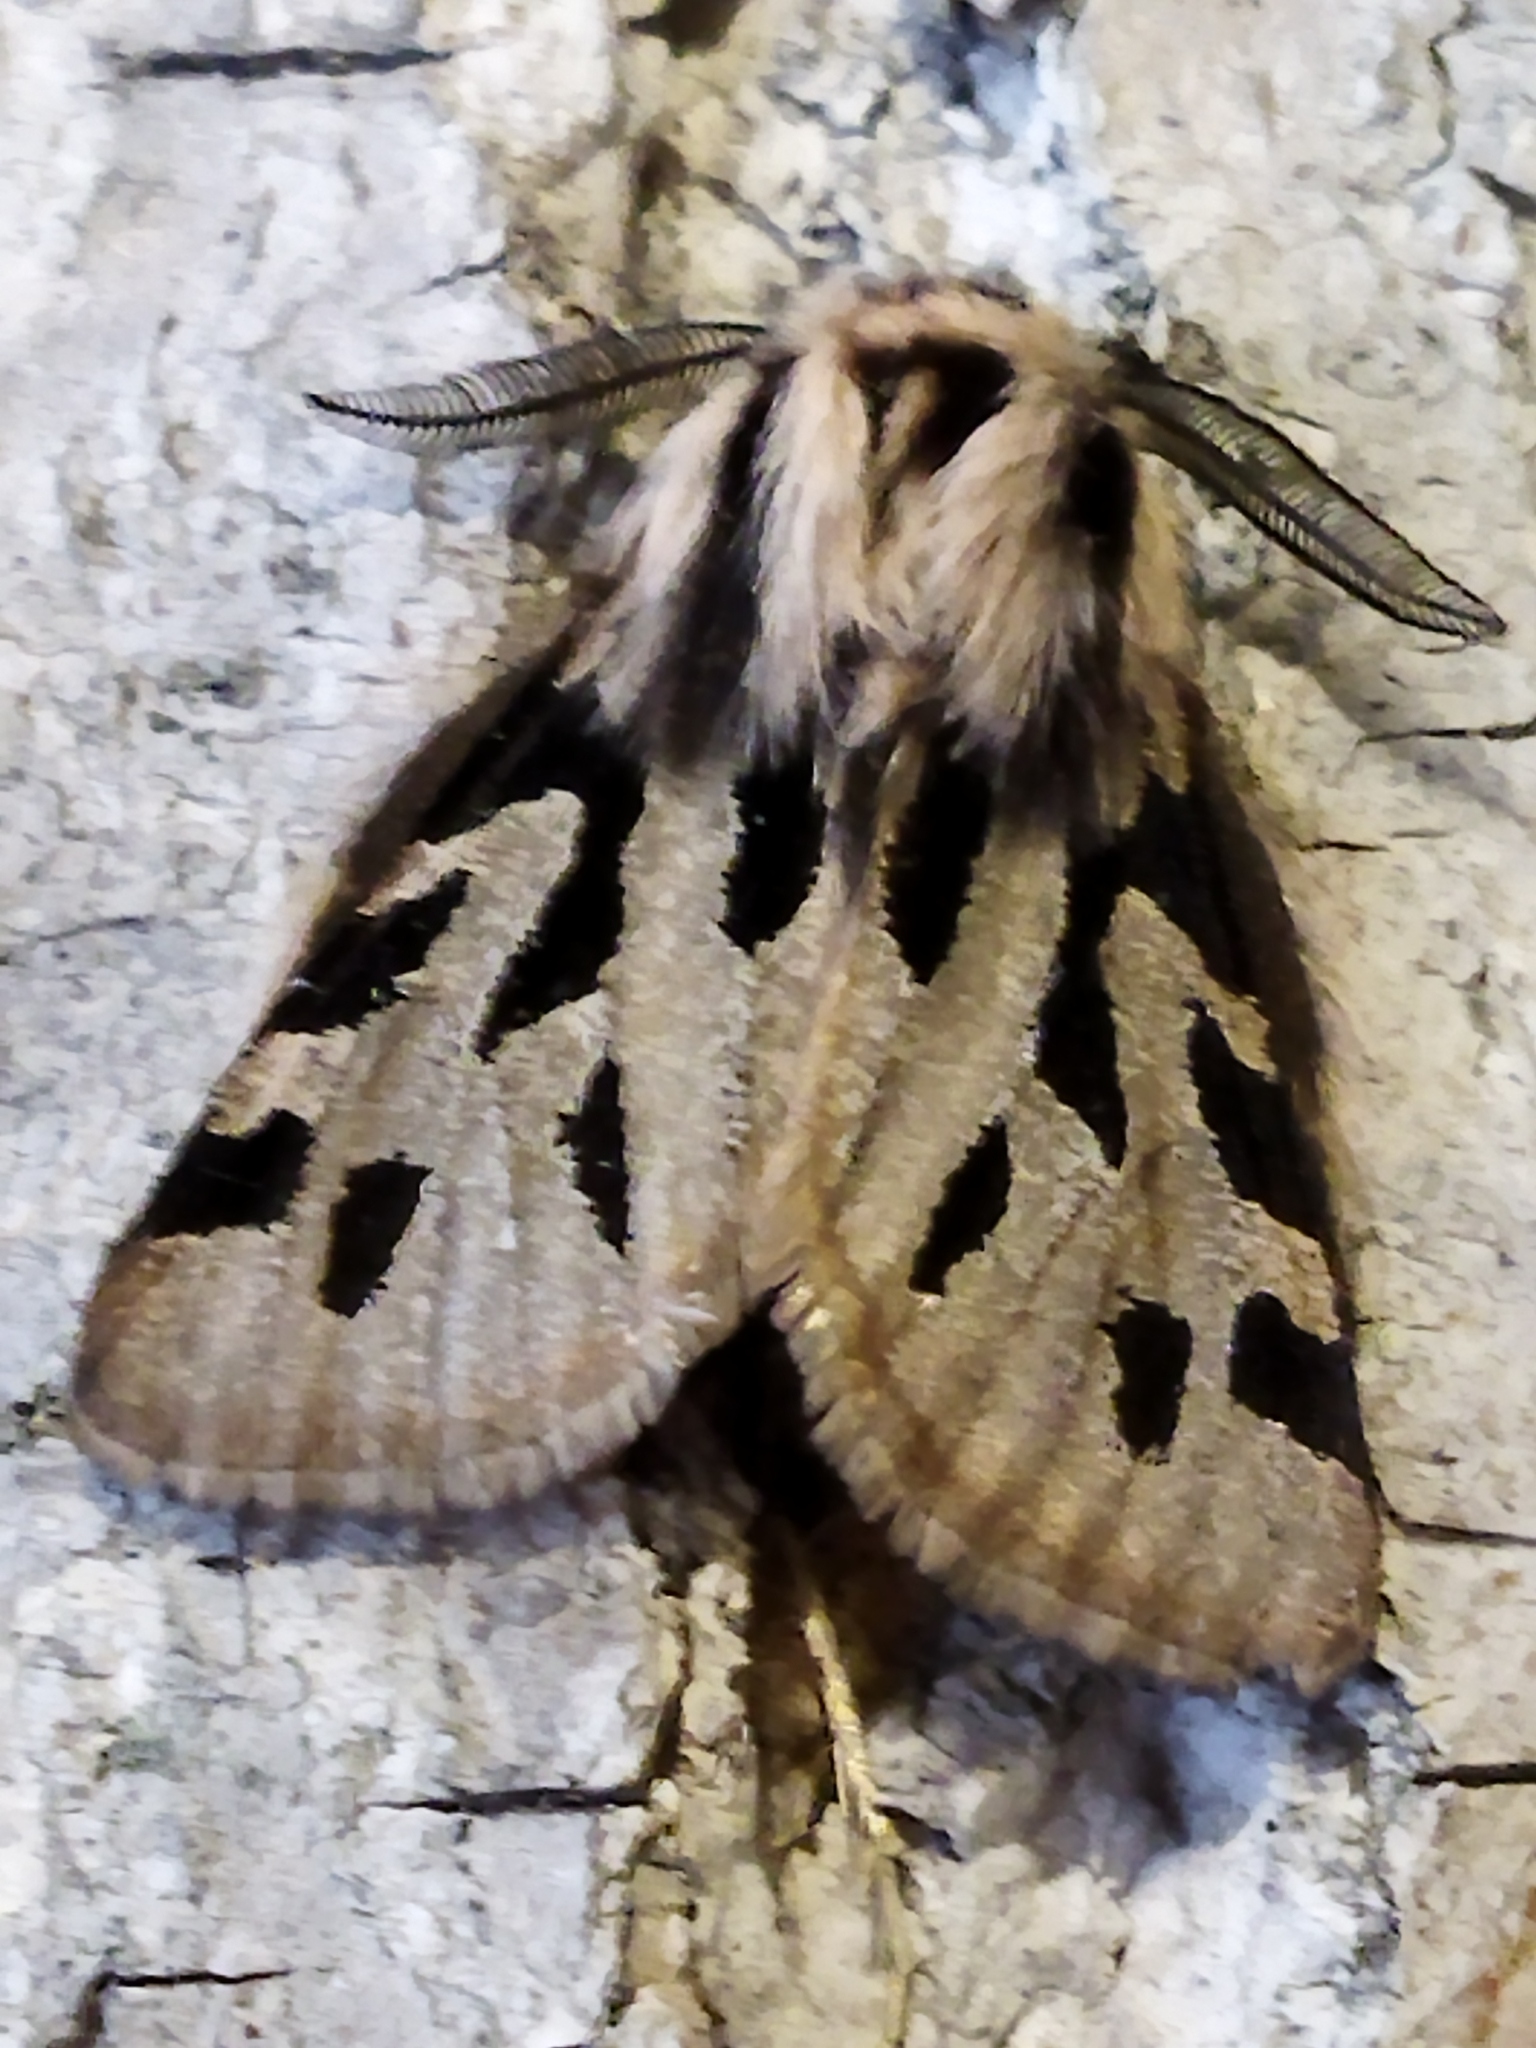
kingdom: Animalia
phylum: Arthropoda
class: Insecta
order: Lepidoptera
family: Erebidae
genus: Ocnogyna
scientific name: Ocnogyna parasita
